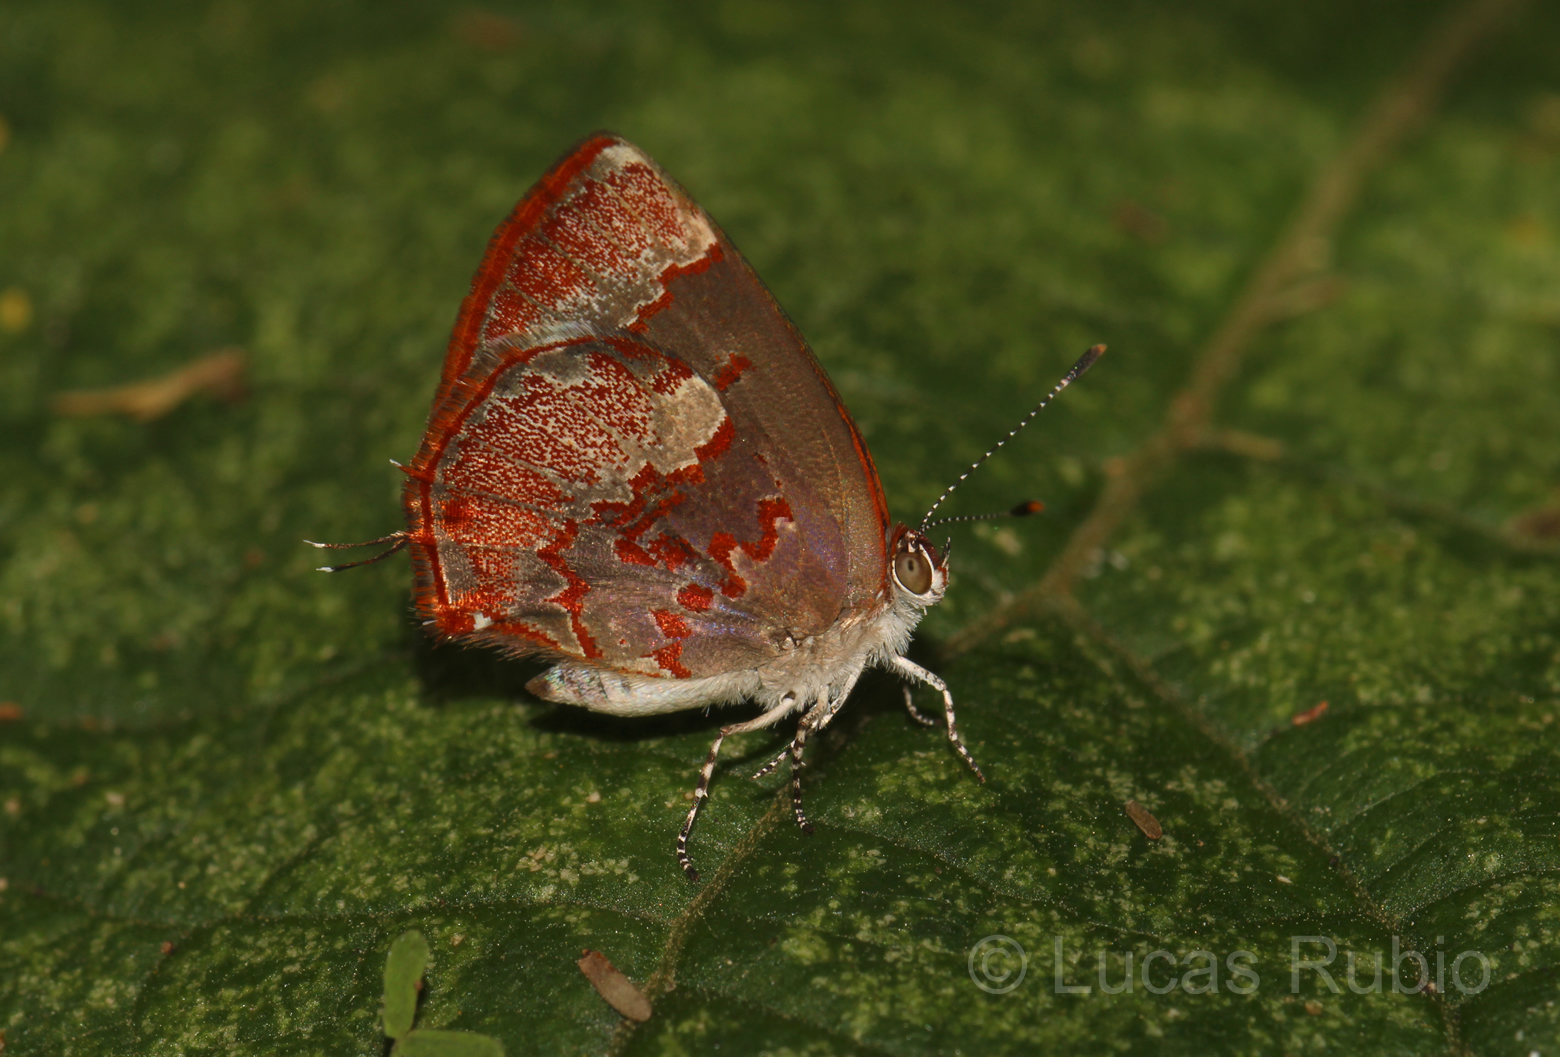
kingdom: Animalia
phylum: Arthropoda
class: Insecta
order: Lepidoptera
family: Lycaenidae
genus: Thecla
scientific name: Thecla cruenta
